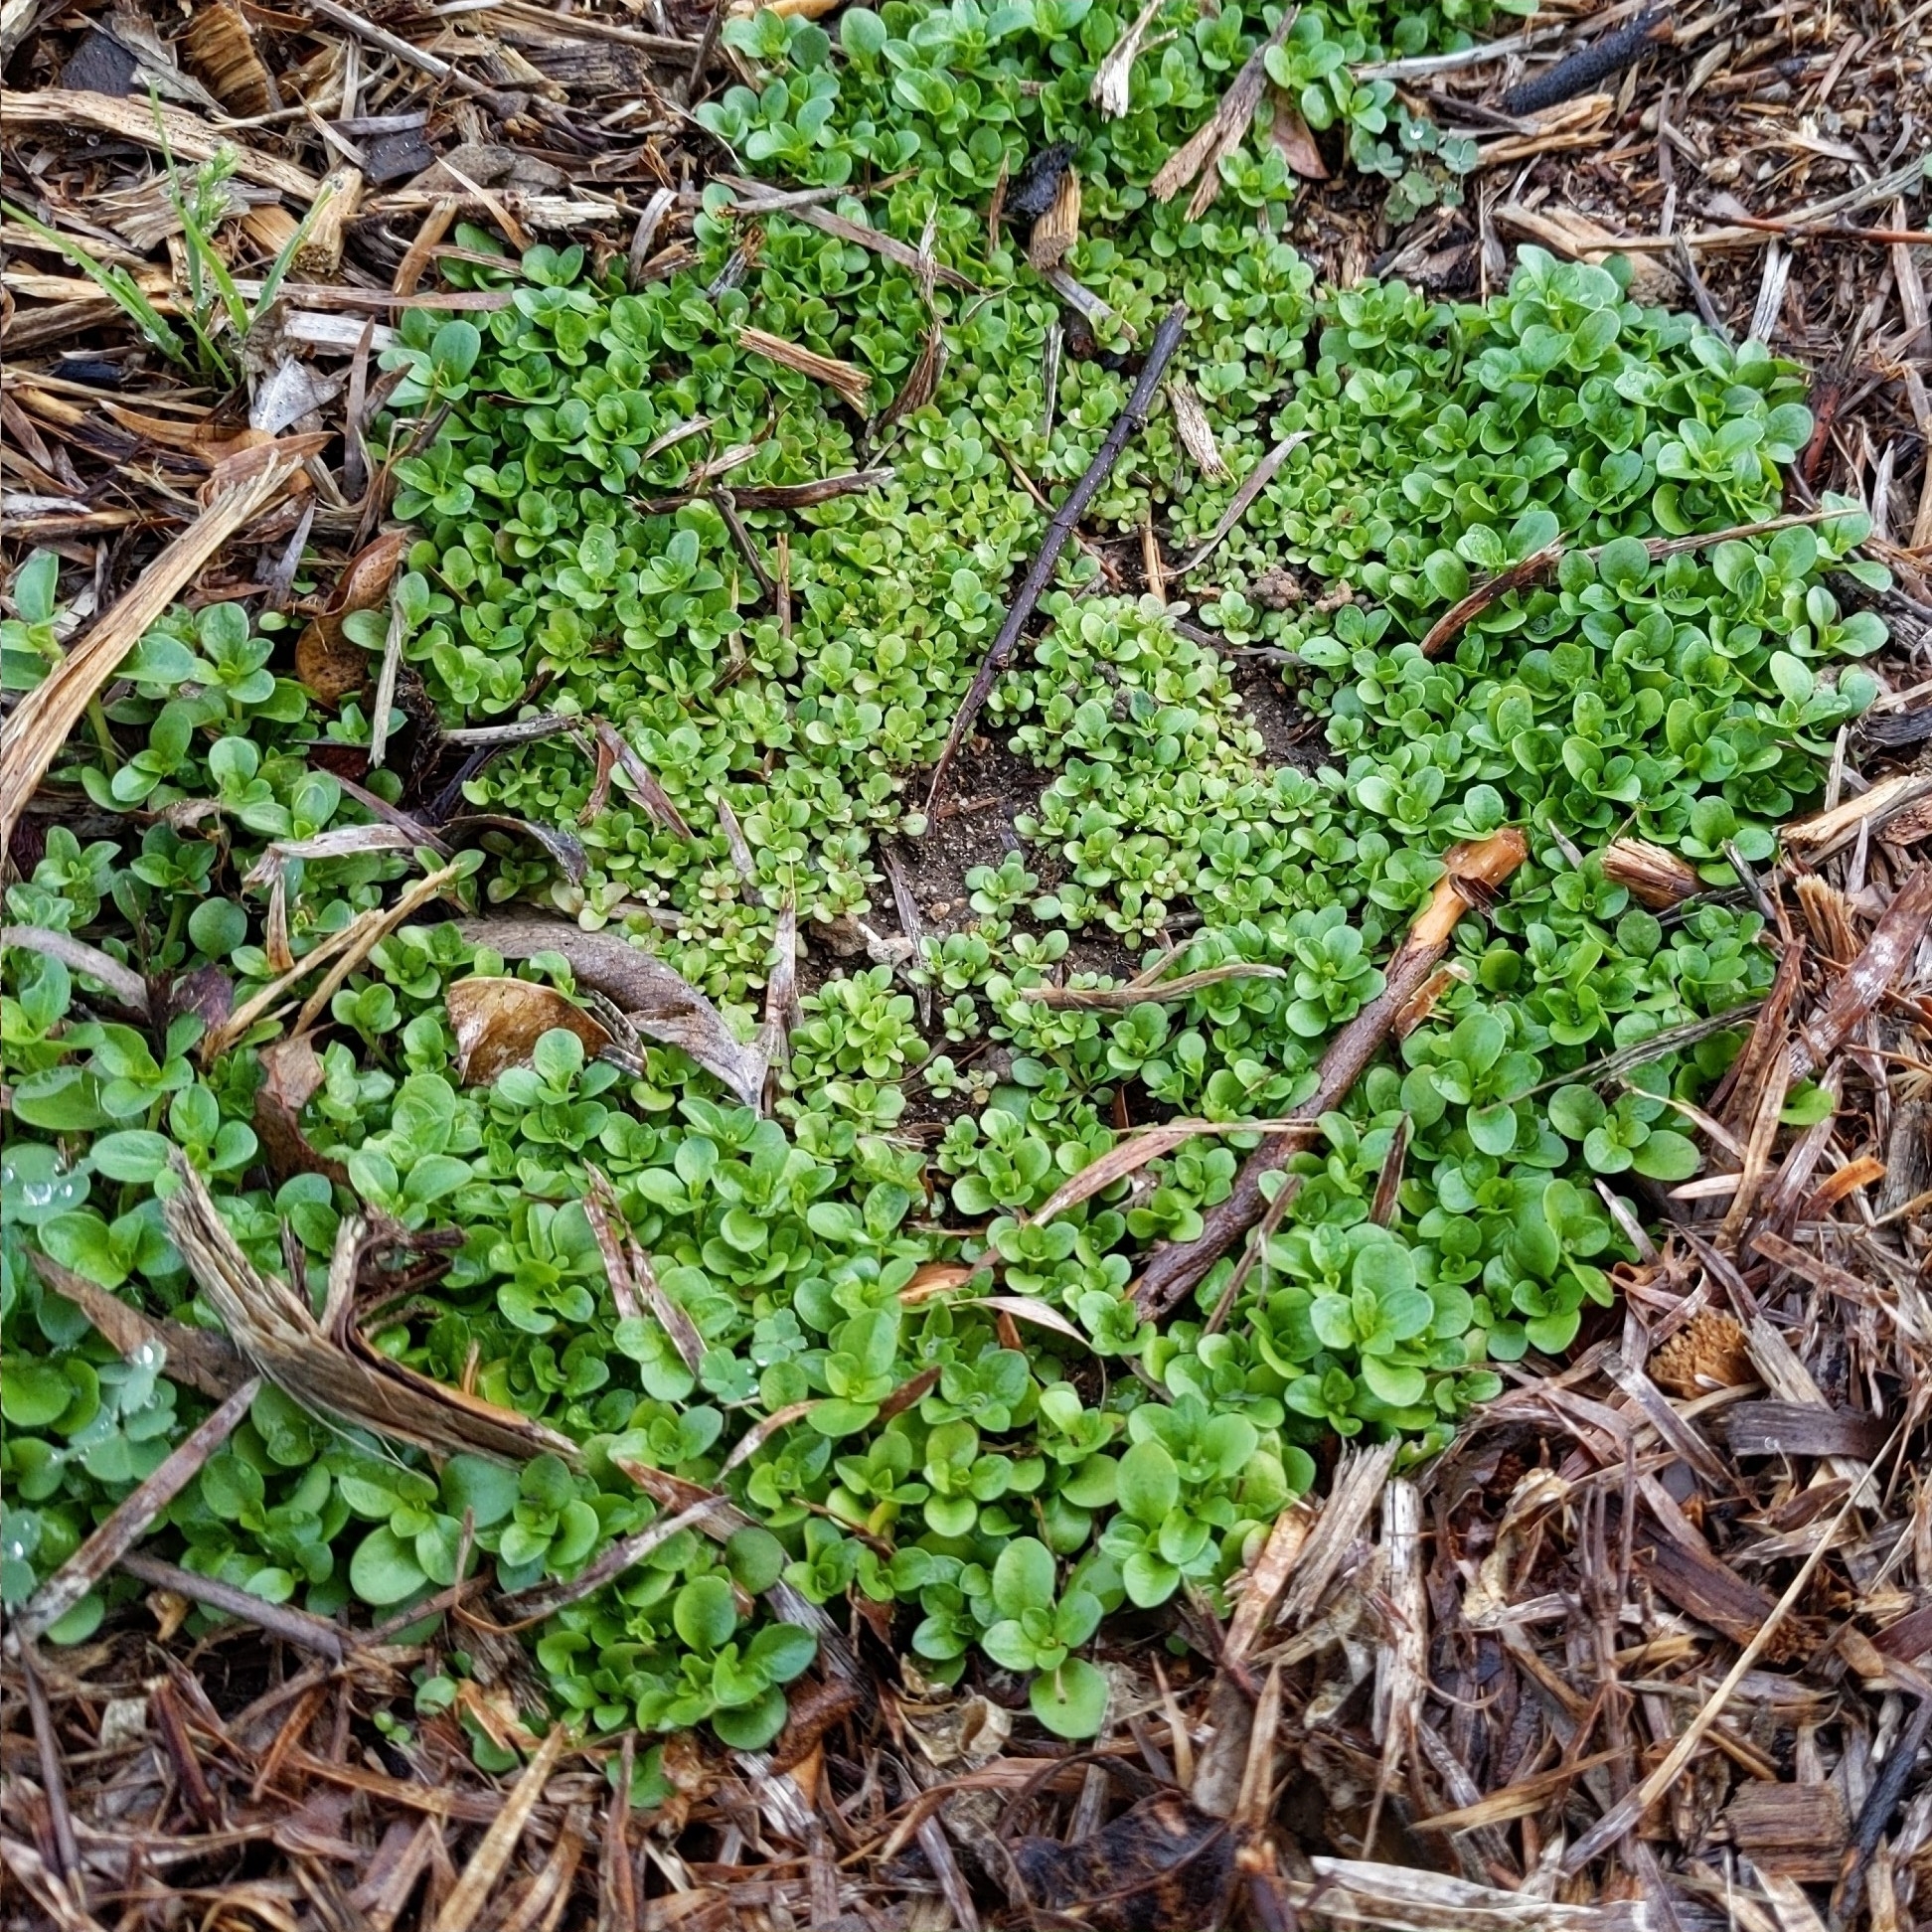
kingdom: Plantae
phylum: Tracheophyta
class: Magnoliopsida
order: Caryophyllales
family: Caryophyllaceae
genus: Polycarpon
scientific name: Polycarpon tetraphyllum
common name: Four-leaved all-seed
